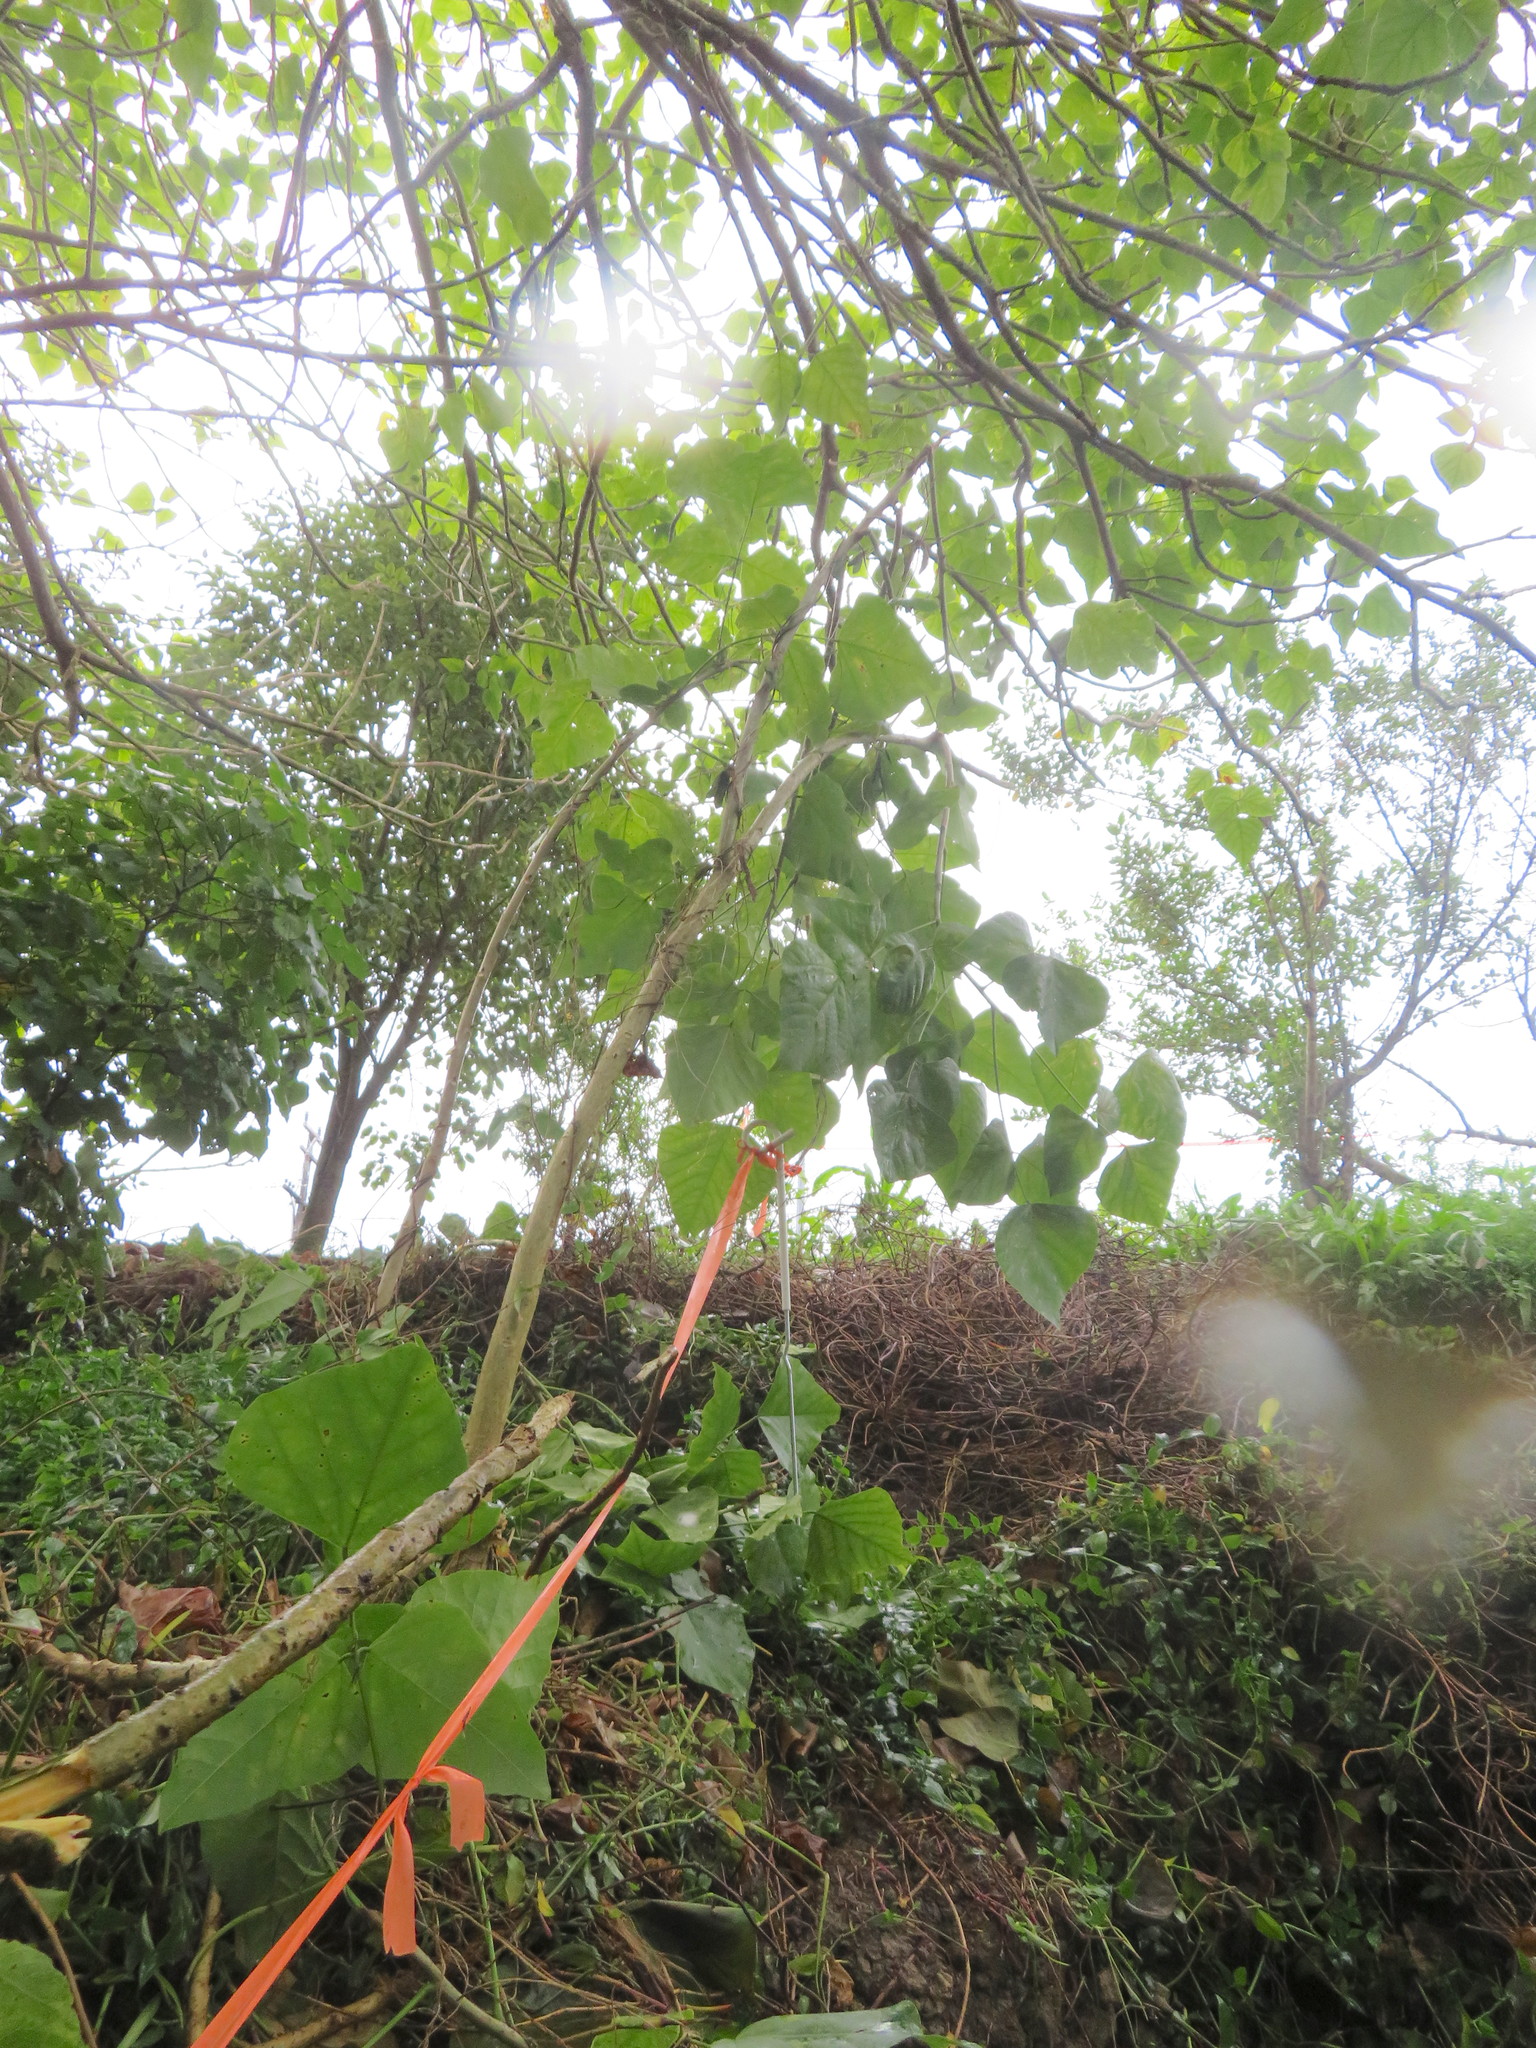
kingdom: Plantae
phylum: Tracheophyta
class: Magnoliopsida
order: Gentianales
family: Rubiaceae
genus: Coprosma
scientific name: Coprosma robusta
